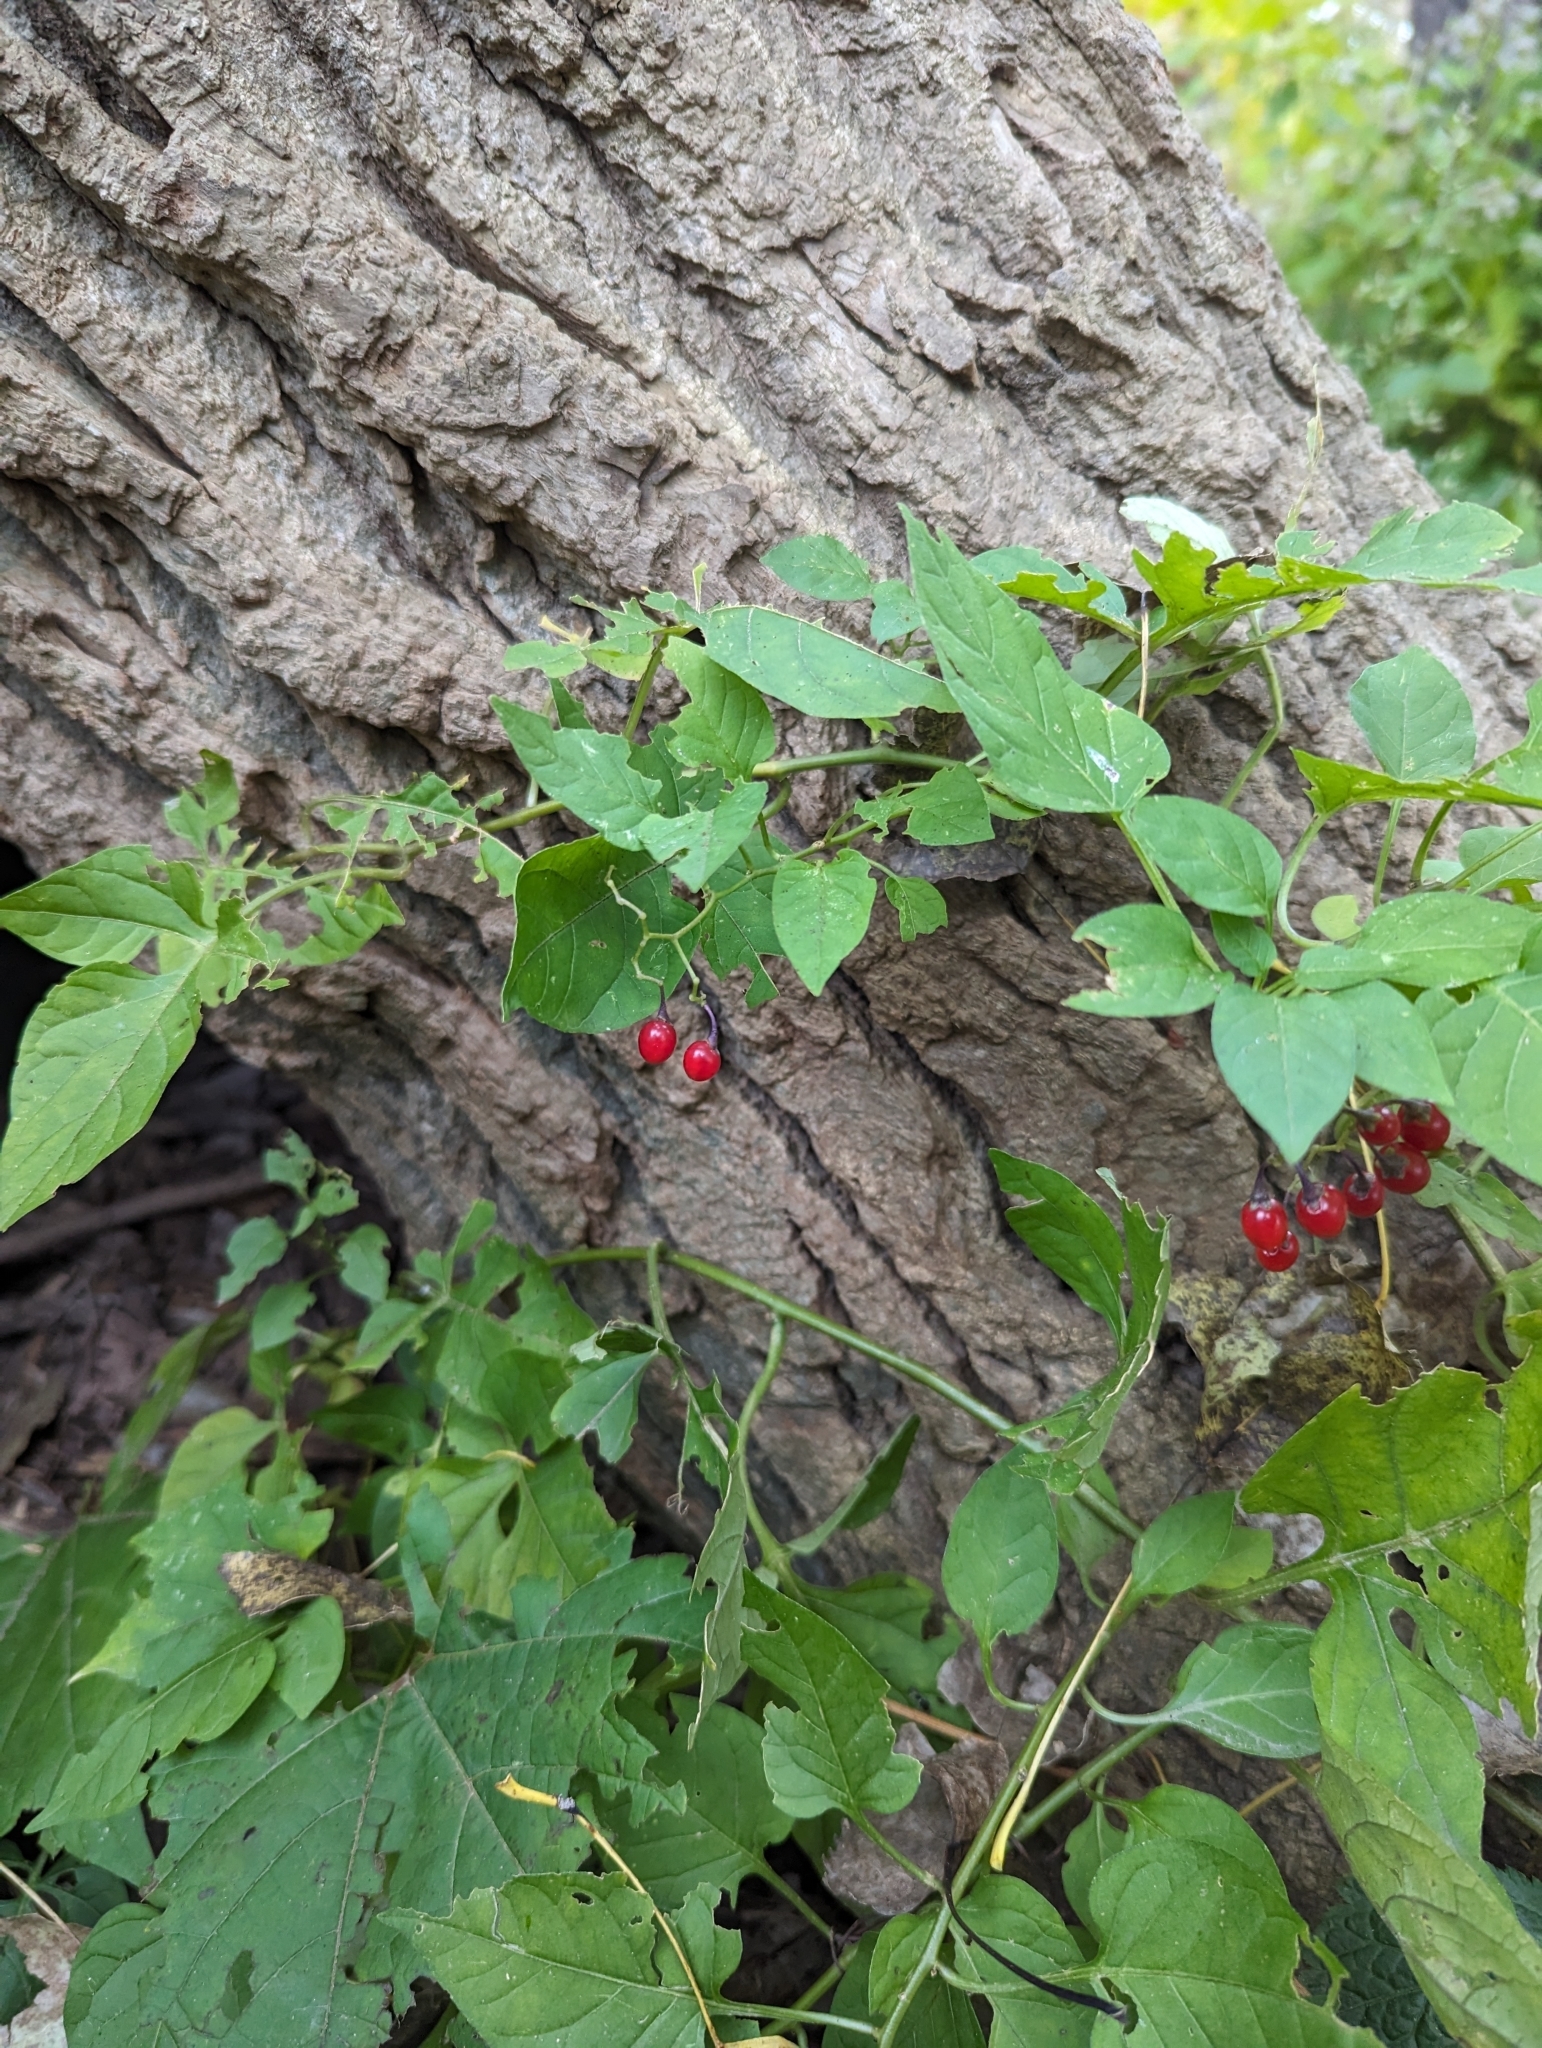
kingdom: Plantae
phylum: Tracheophyta
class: Magnoliopsida
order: Solanales
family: Solanaceae
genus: Solanum
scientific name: Solanum dulcamara
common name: Climbing nightshade
